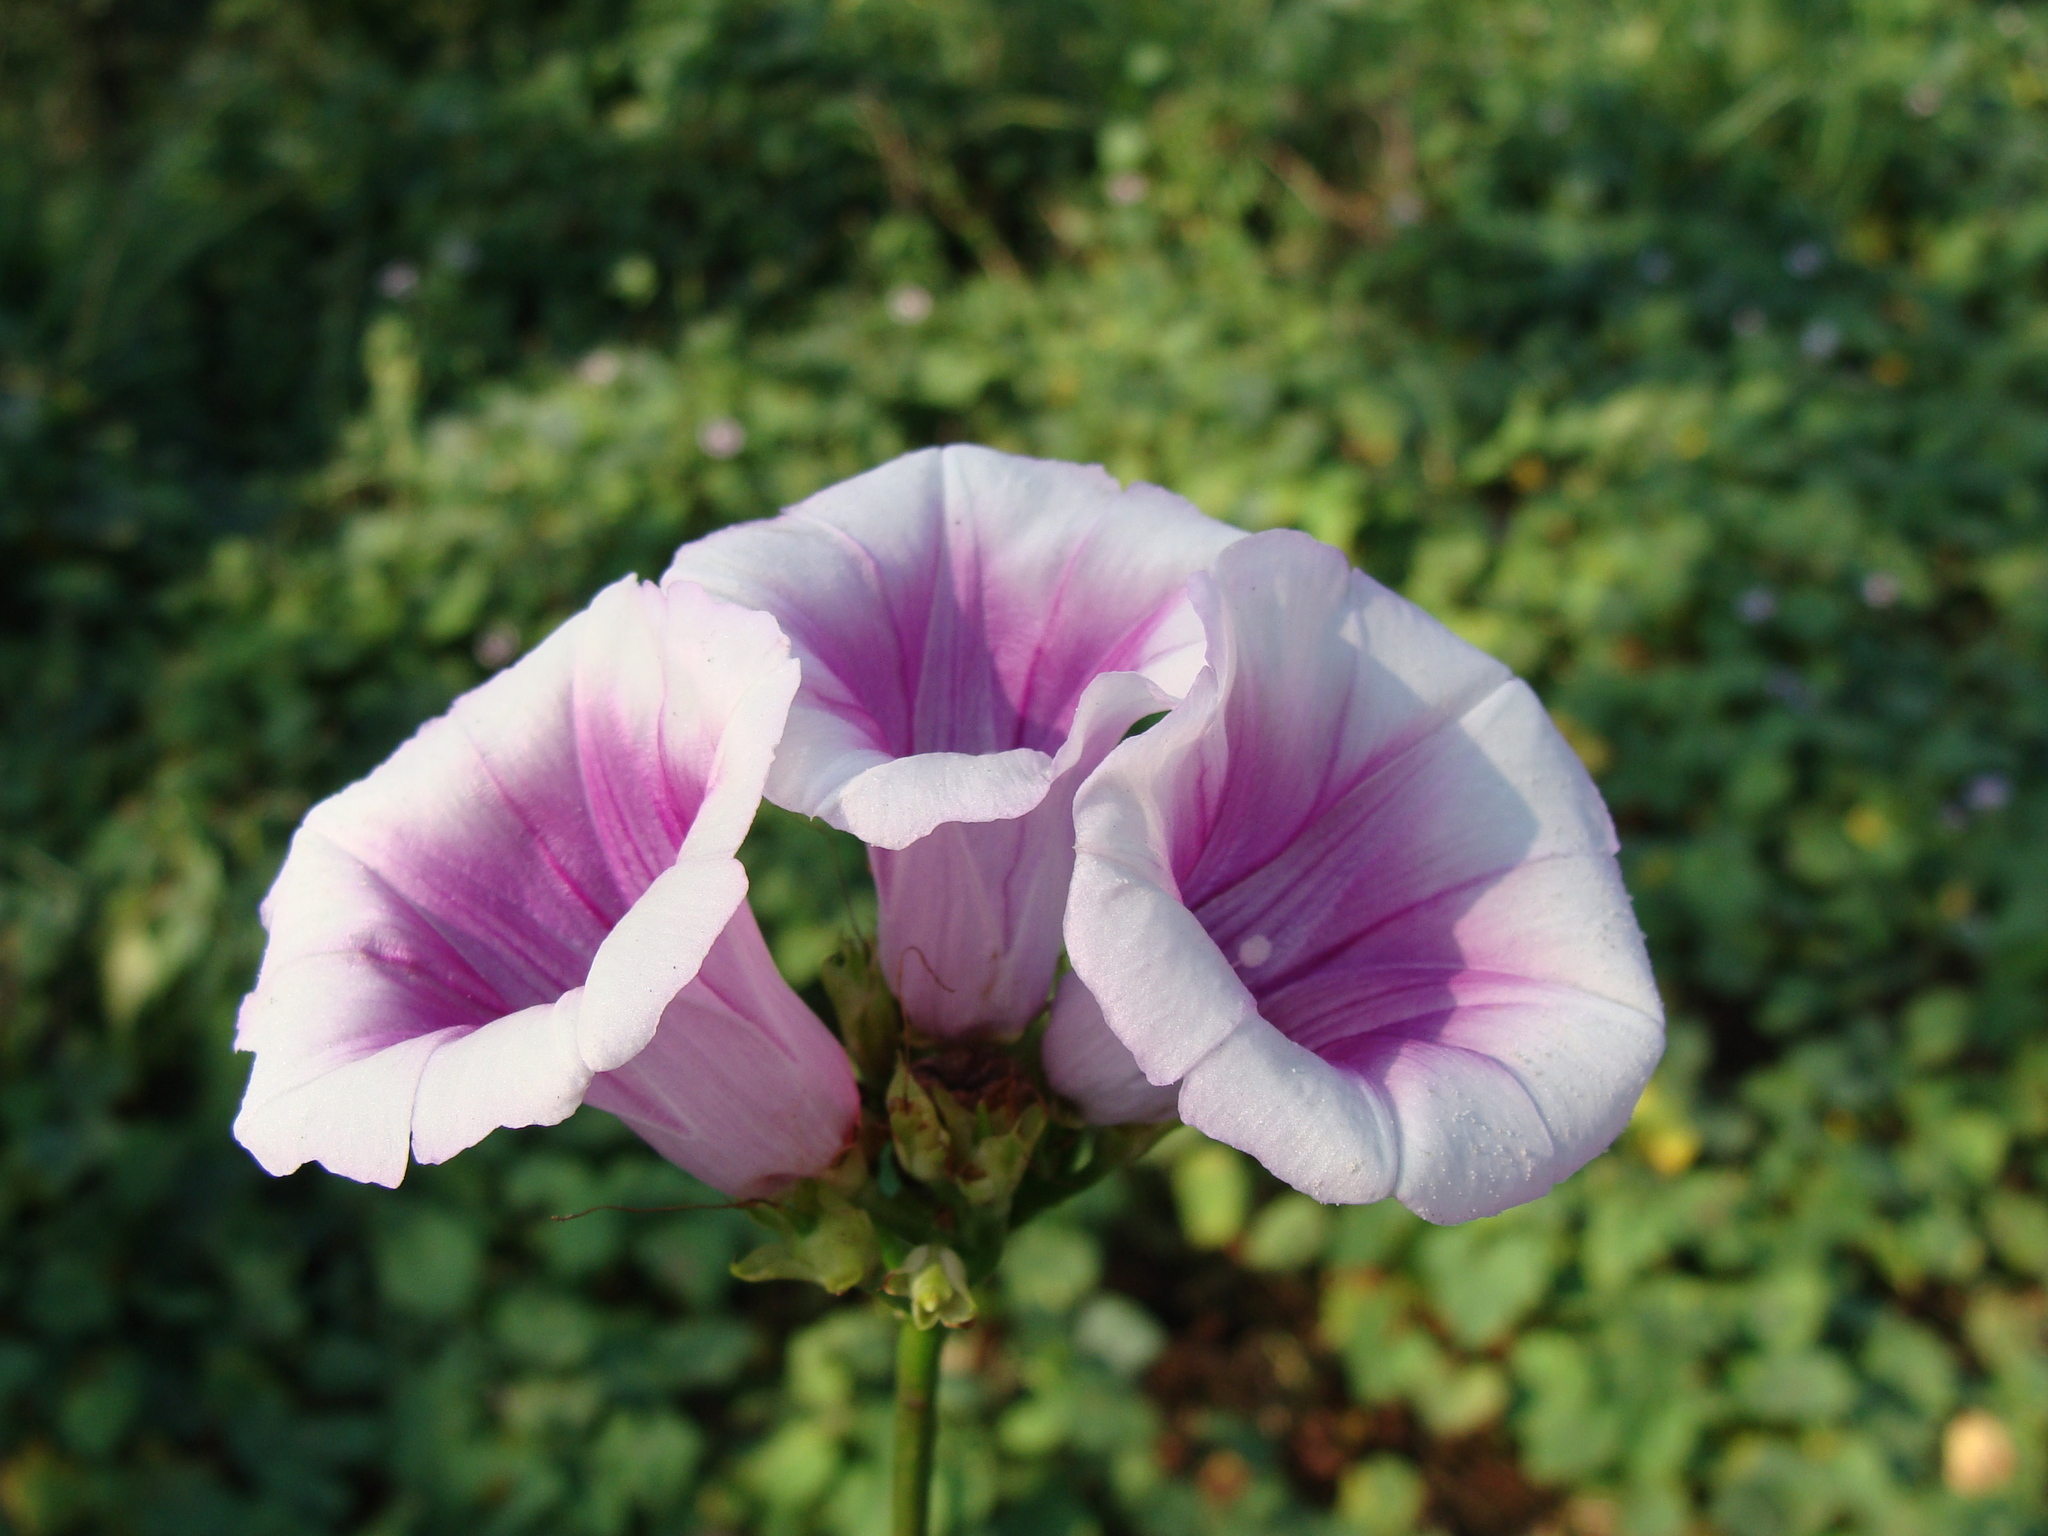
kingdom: Plantae
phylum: Tracheophyta
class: Magnoliopsida
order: Solanales
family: Convolvulaceae
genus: Ipomoea
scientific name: Ipomoea batatas
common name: Sweet-potato
